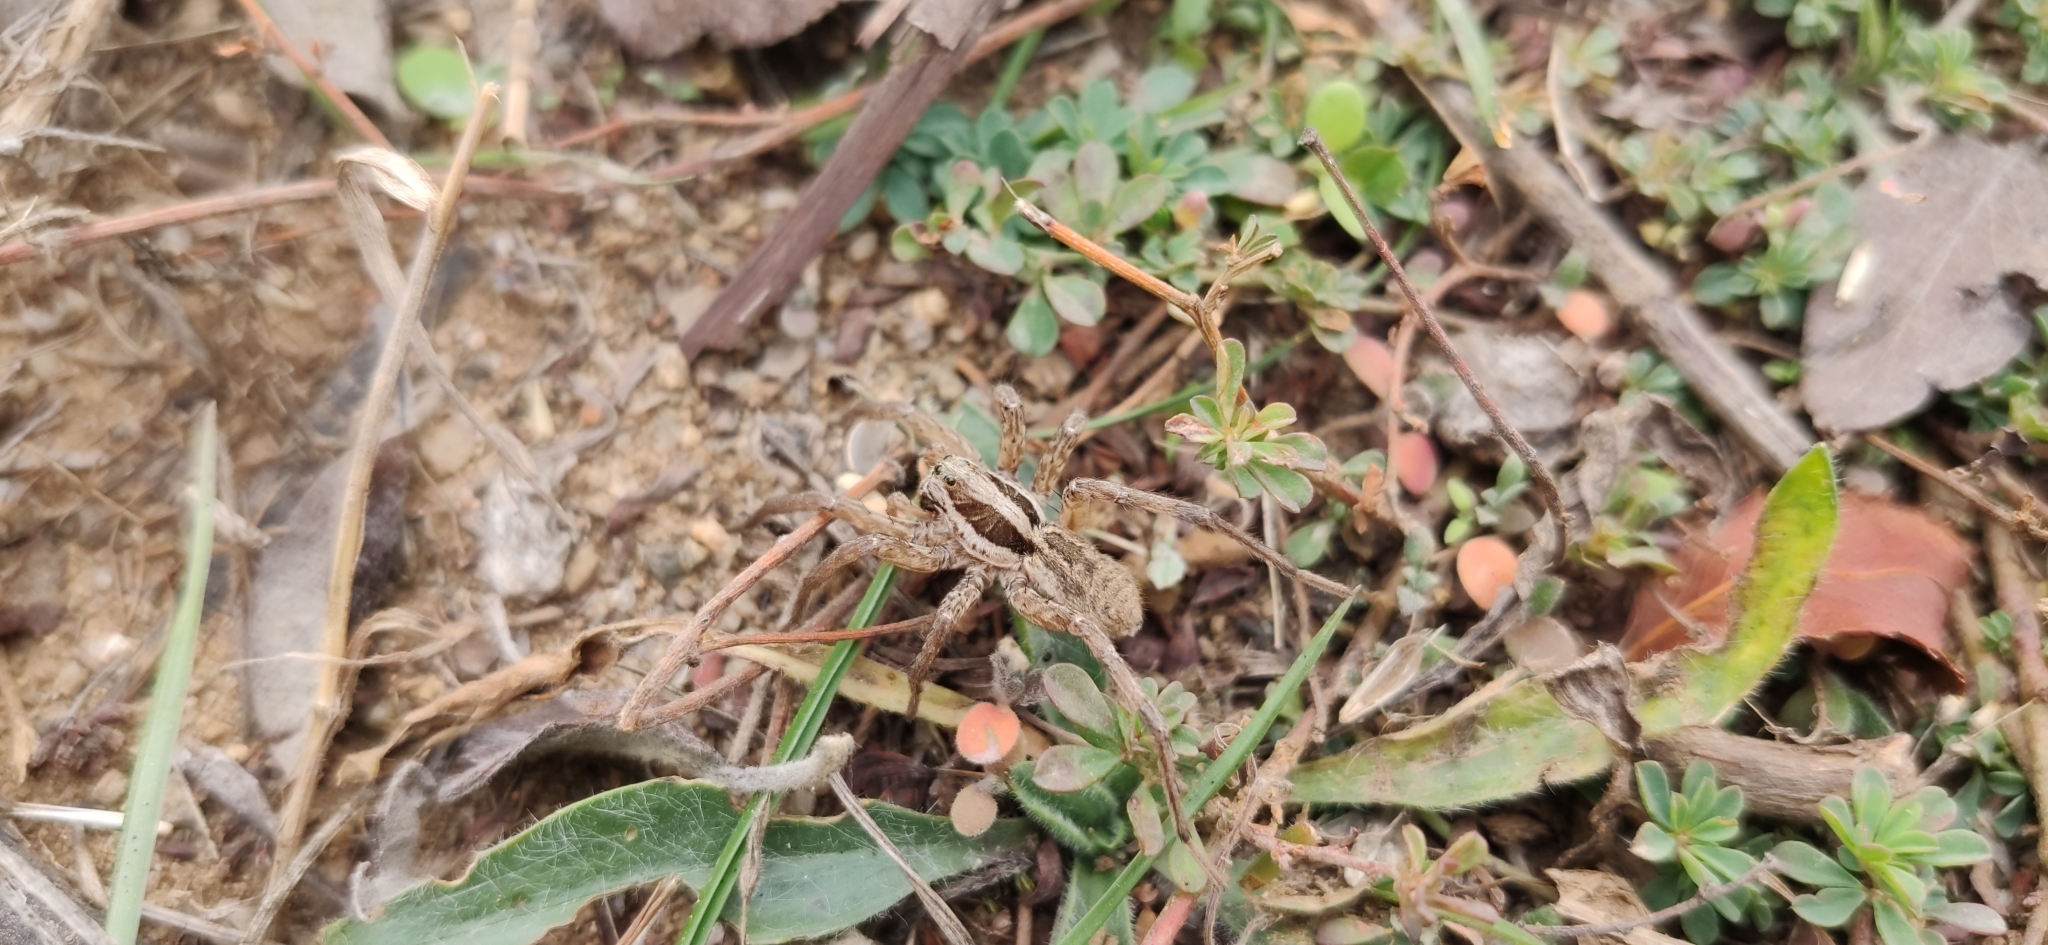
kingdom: Animalia
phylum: Arthropoda
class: Arachnida
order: Araneae
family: Lycosidae
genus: Hogna
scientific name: Hogna radiata
